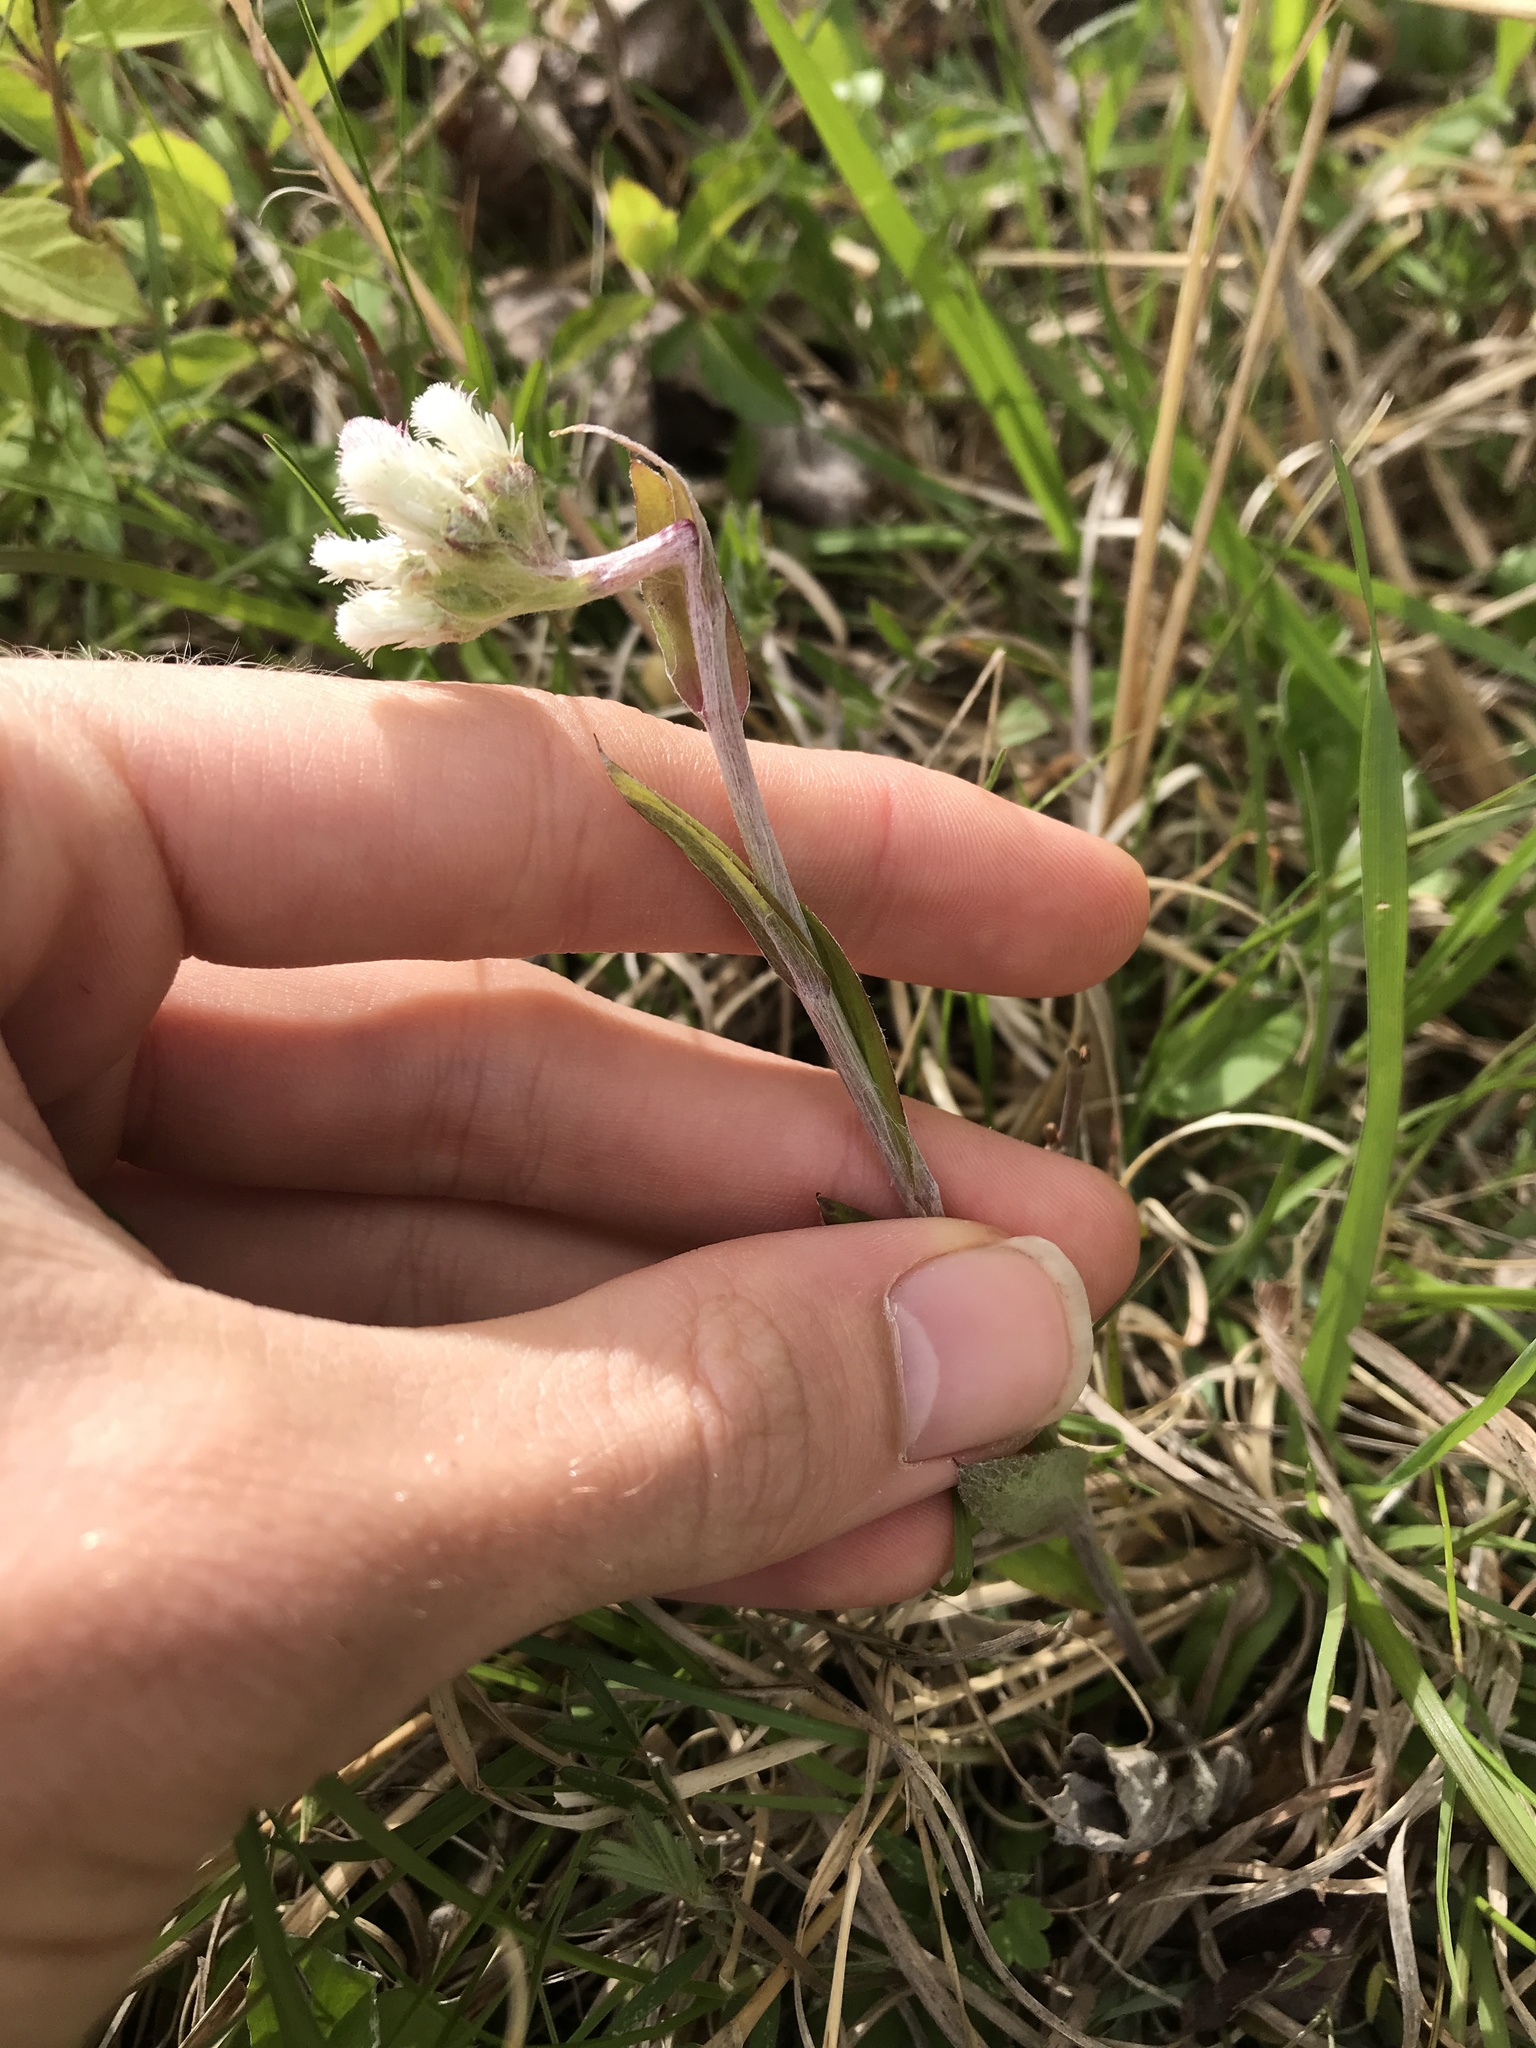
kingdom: Plantae
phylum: Tracheophyta
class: Magnoliopsida
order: Asterales
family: Asteraceae
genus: Antennaria
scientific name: Antennaria neglecta
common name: Field pussytoes
